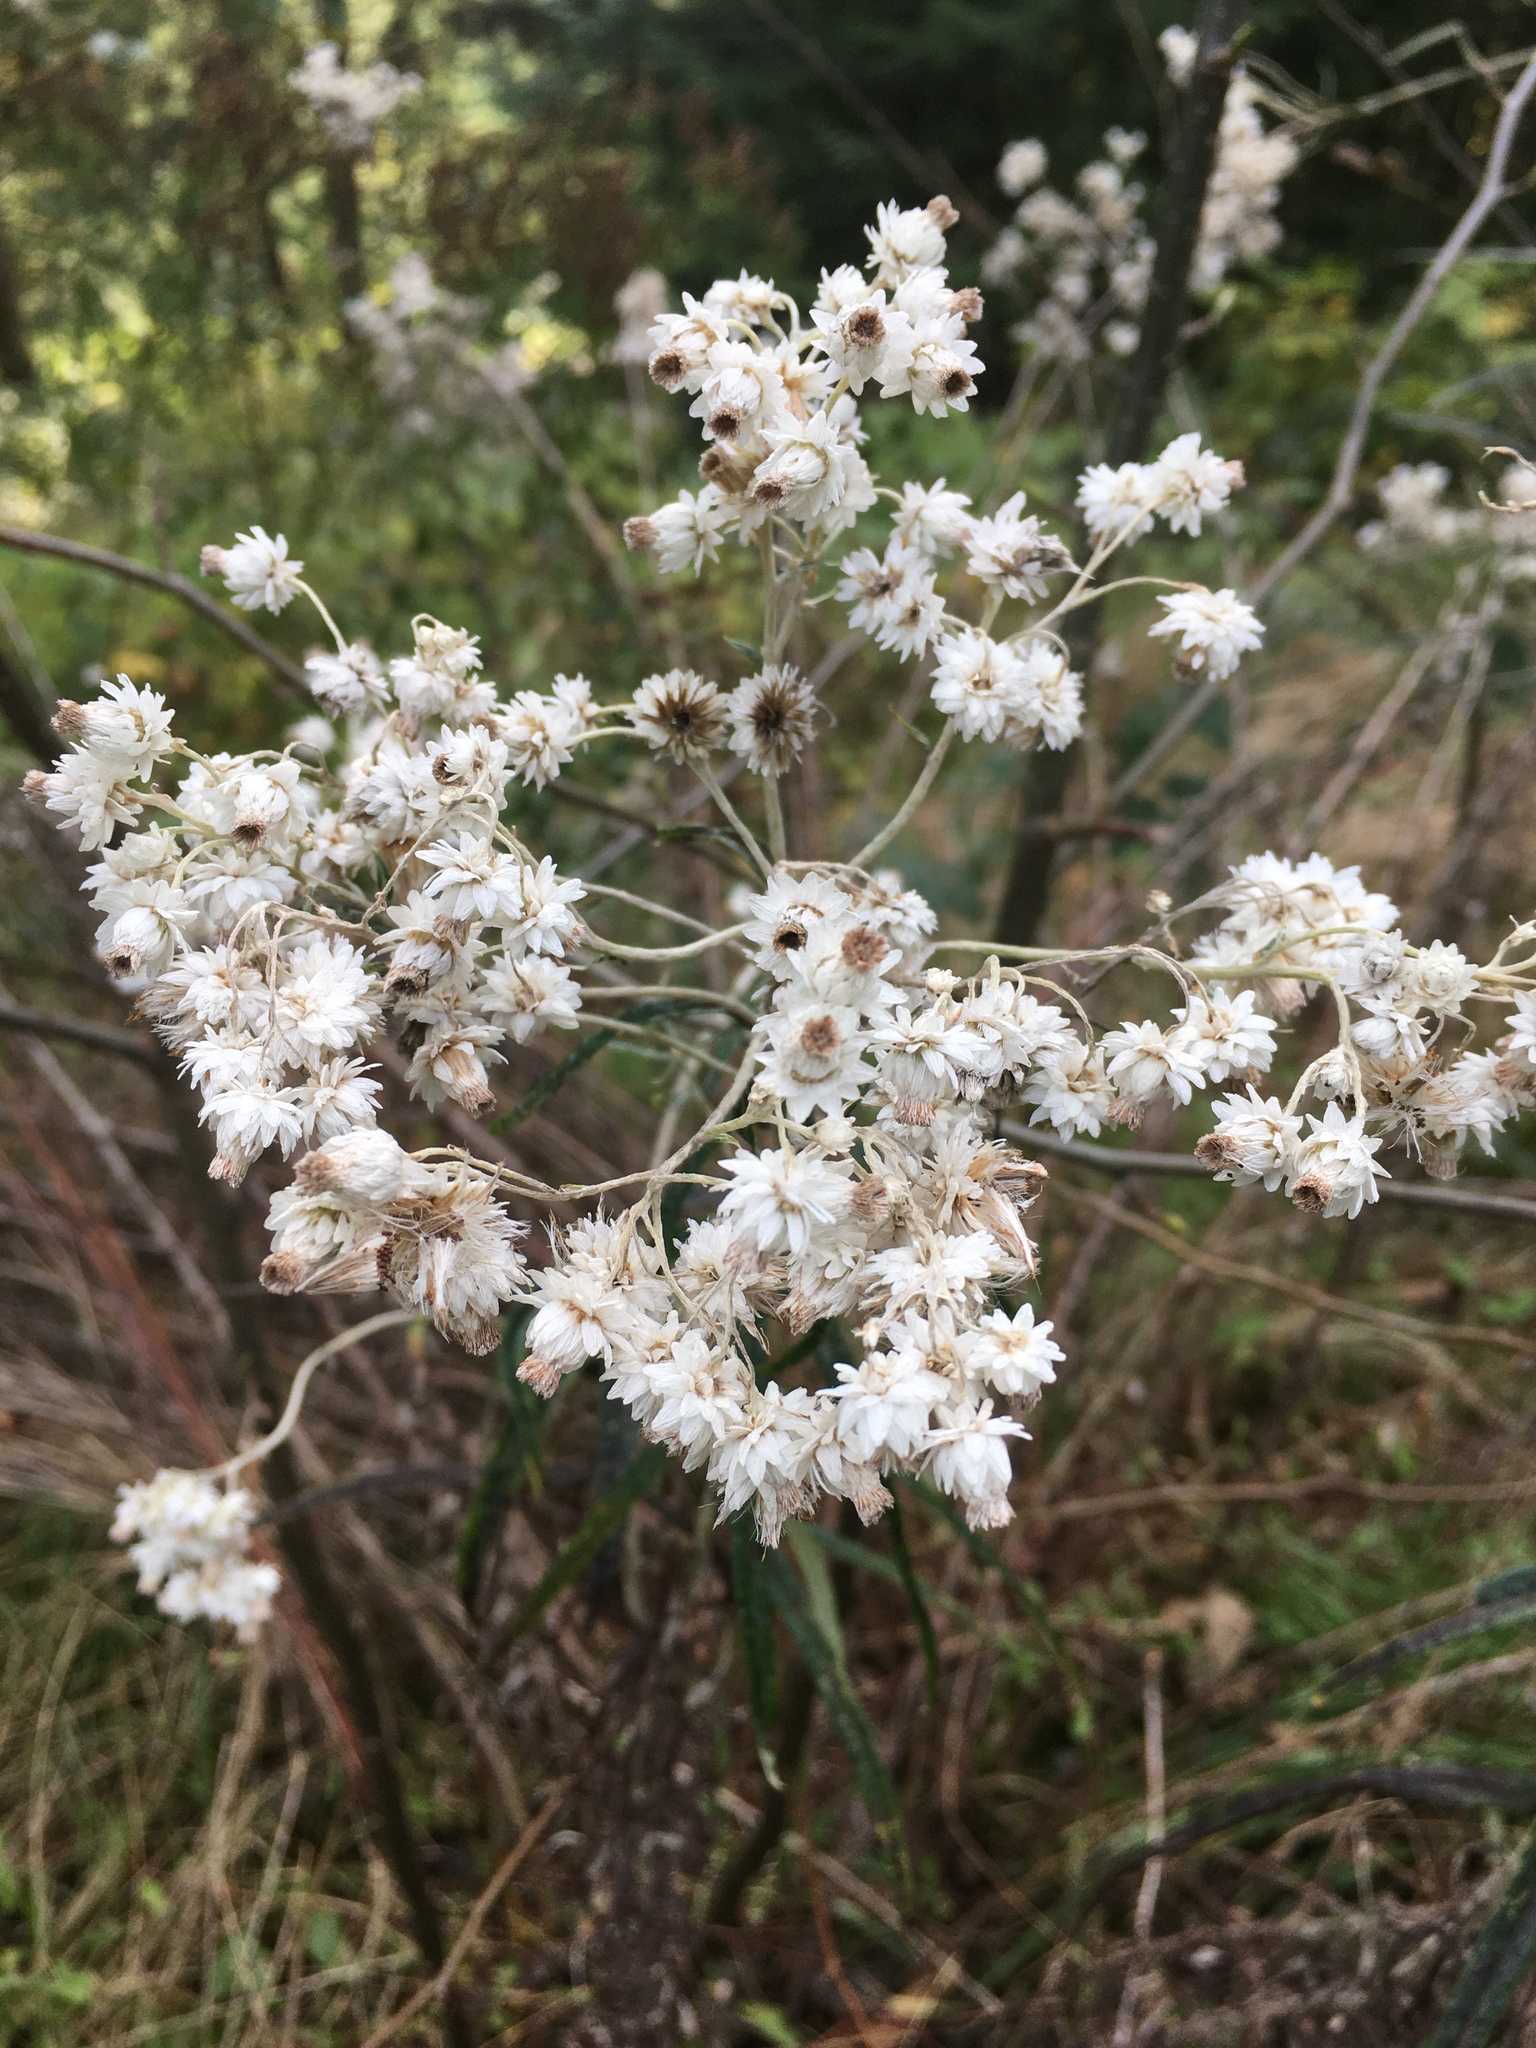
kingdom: Plantae
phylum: Tracheophyta
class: Magnoliopsida
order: Asterales
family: Asteraceae
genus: Anaphalis
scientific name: Anaphalis margaritacea
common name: Pearly everlasting
